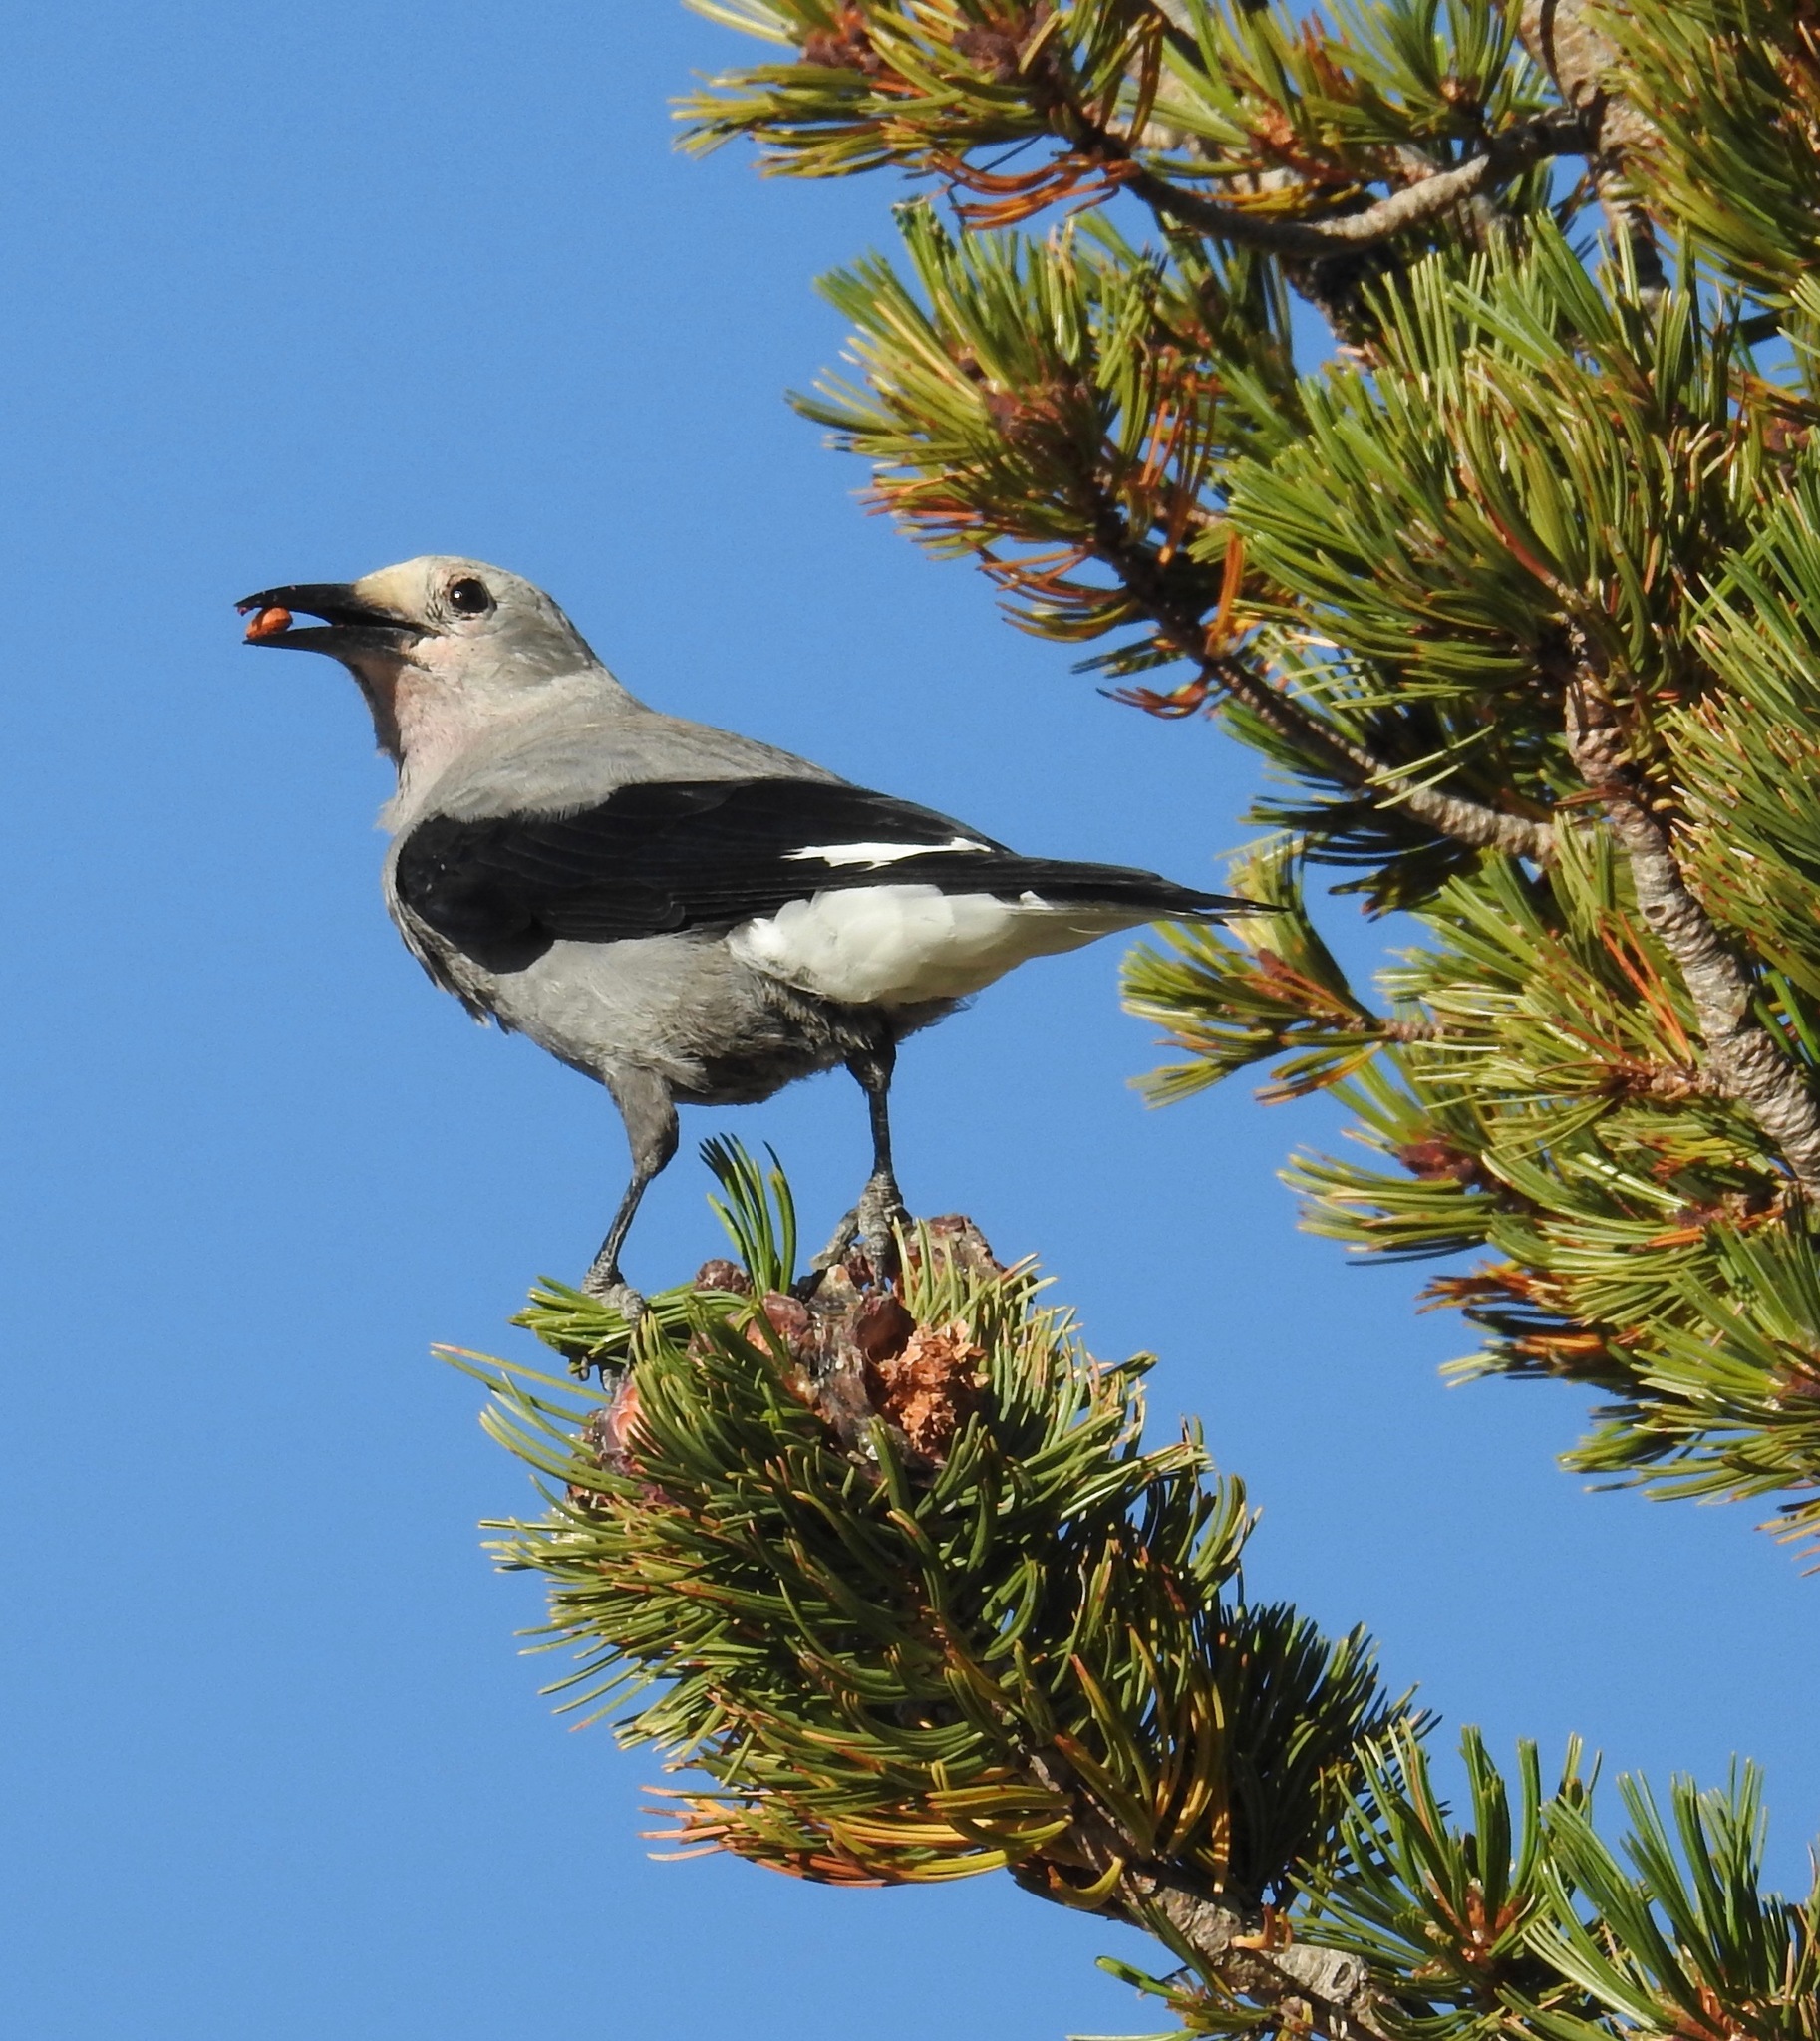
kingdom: Animalia
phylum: Chordata
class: Aves
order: Passeriformes
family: Corvidae
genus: Nucifraga
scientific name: Nucifraga columbiana
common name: Clark's nutcracker
